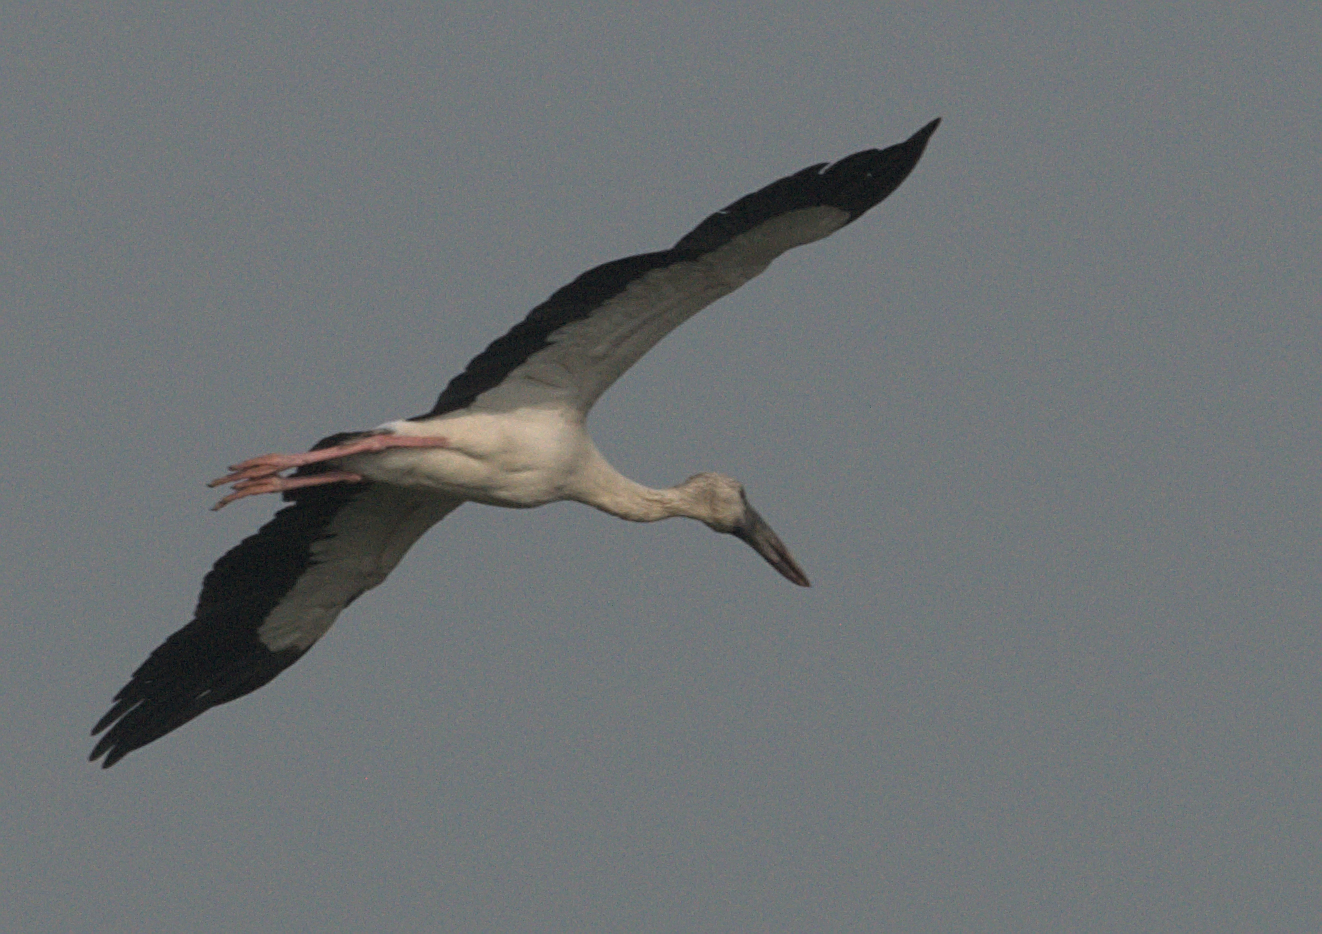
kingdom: Animalia
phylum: Chordata
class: Aves
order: Ciconiiformes
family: Ciconiidae
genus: Anastomus
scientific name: Anastomus oscitans
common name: Asian openbill
